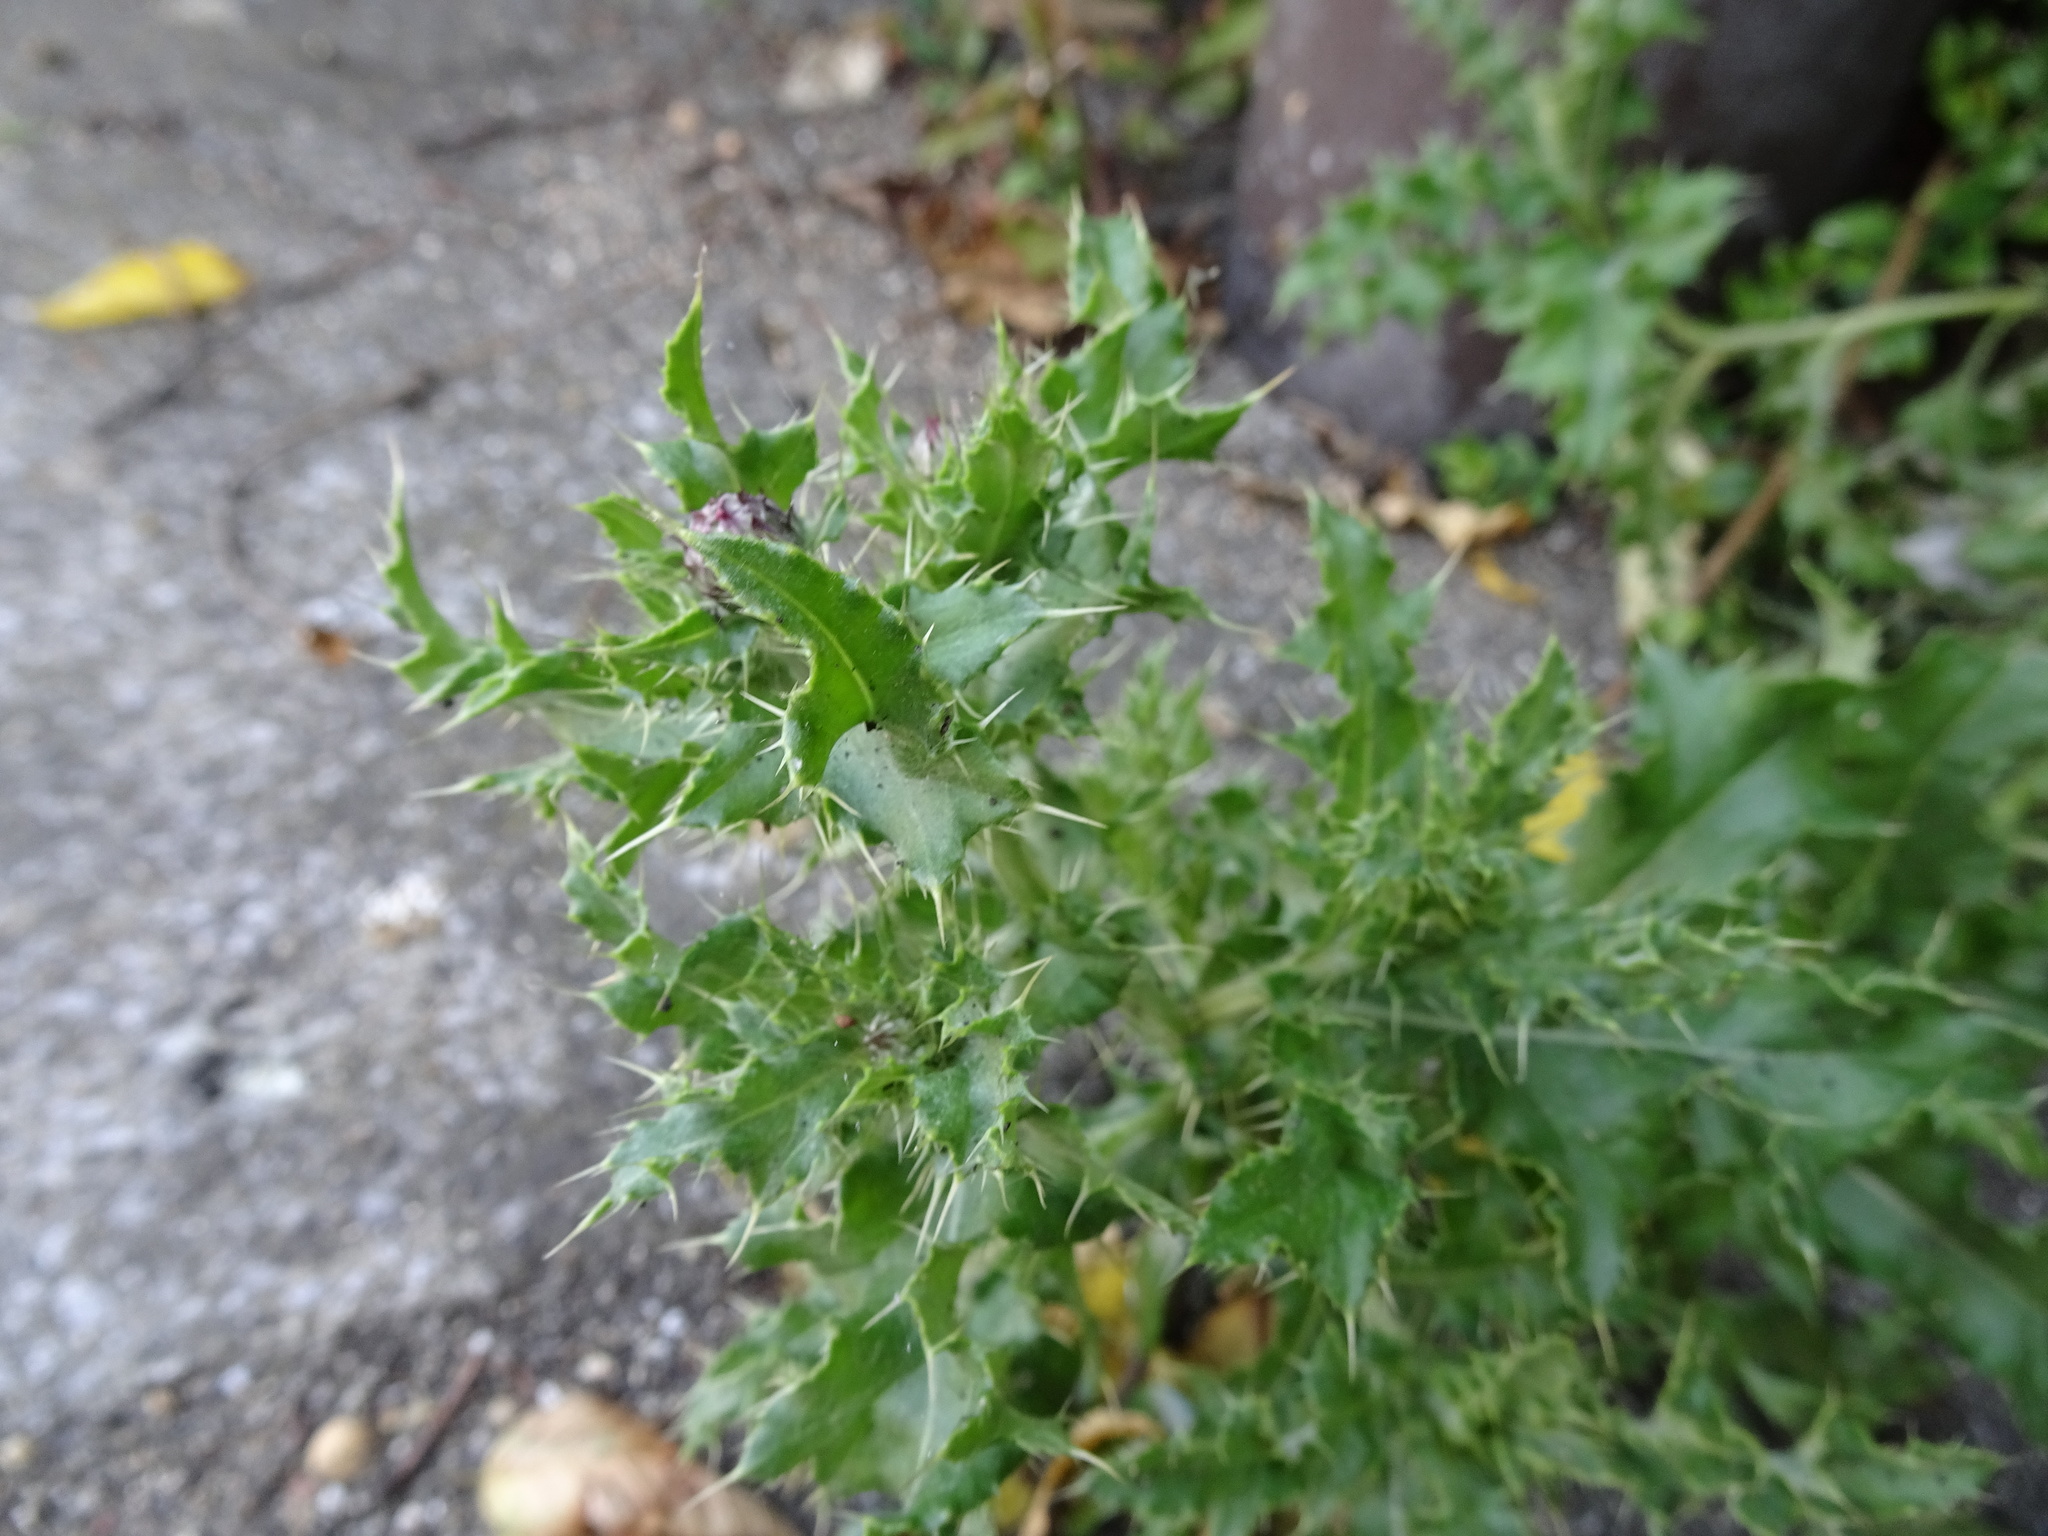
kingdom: Plantae
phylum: Tracheophyta
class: Magnoliopsida
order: Asterales
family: Asteraceae
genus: Cirsium
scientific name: Cirsium arvense
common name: Creeping thistle
